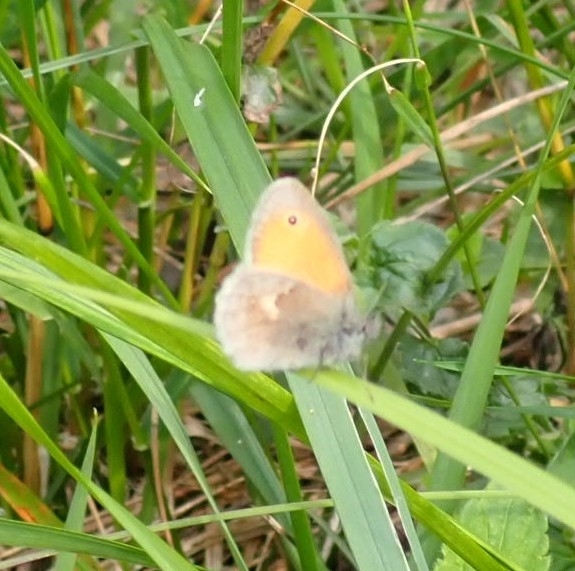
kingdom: Animalia
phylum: Arthropoda
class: Insecta
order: Lepidoptera
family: Nymphalidae
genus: Coenonympha
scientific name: Coenonympha pamphilus
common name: Small heath
